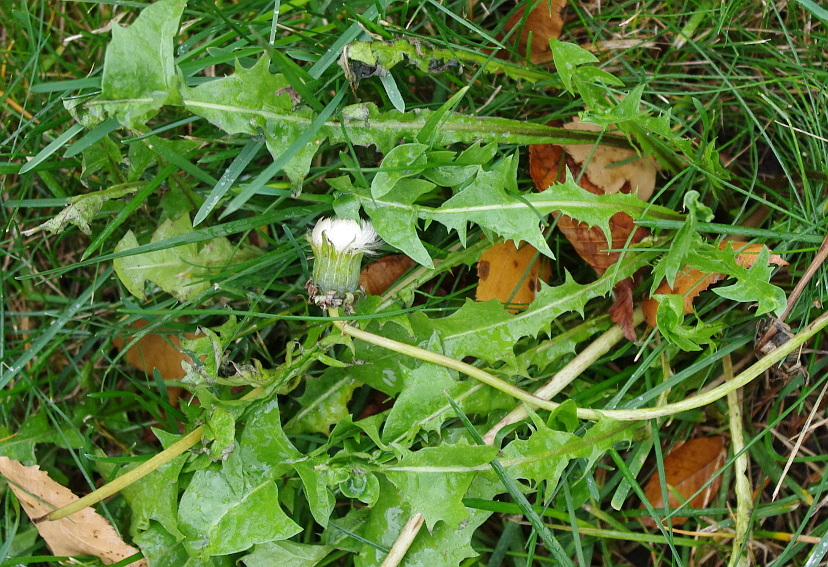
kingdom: Plantae
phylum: Tracheophyta
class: Magnoliopsida
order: Asterales
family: Asteraceae
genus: Taraxacum
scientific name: Taraxacum officinale
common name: Common dandelion
